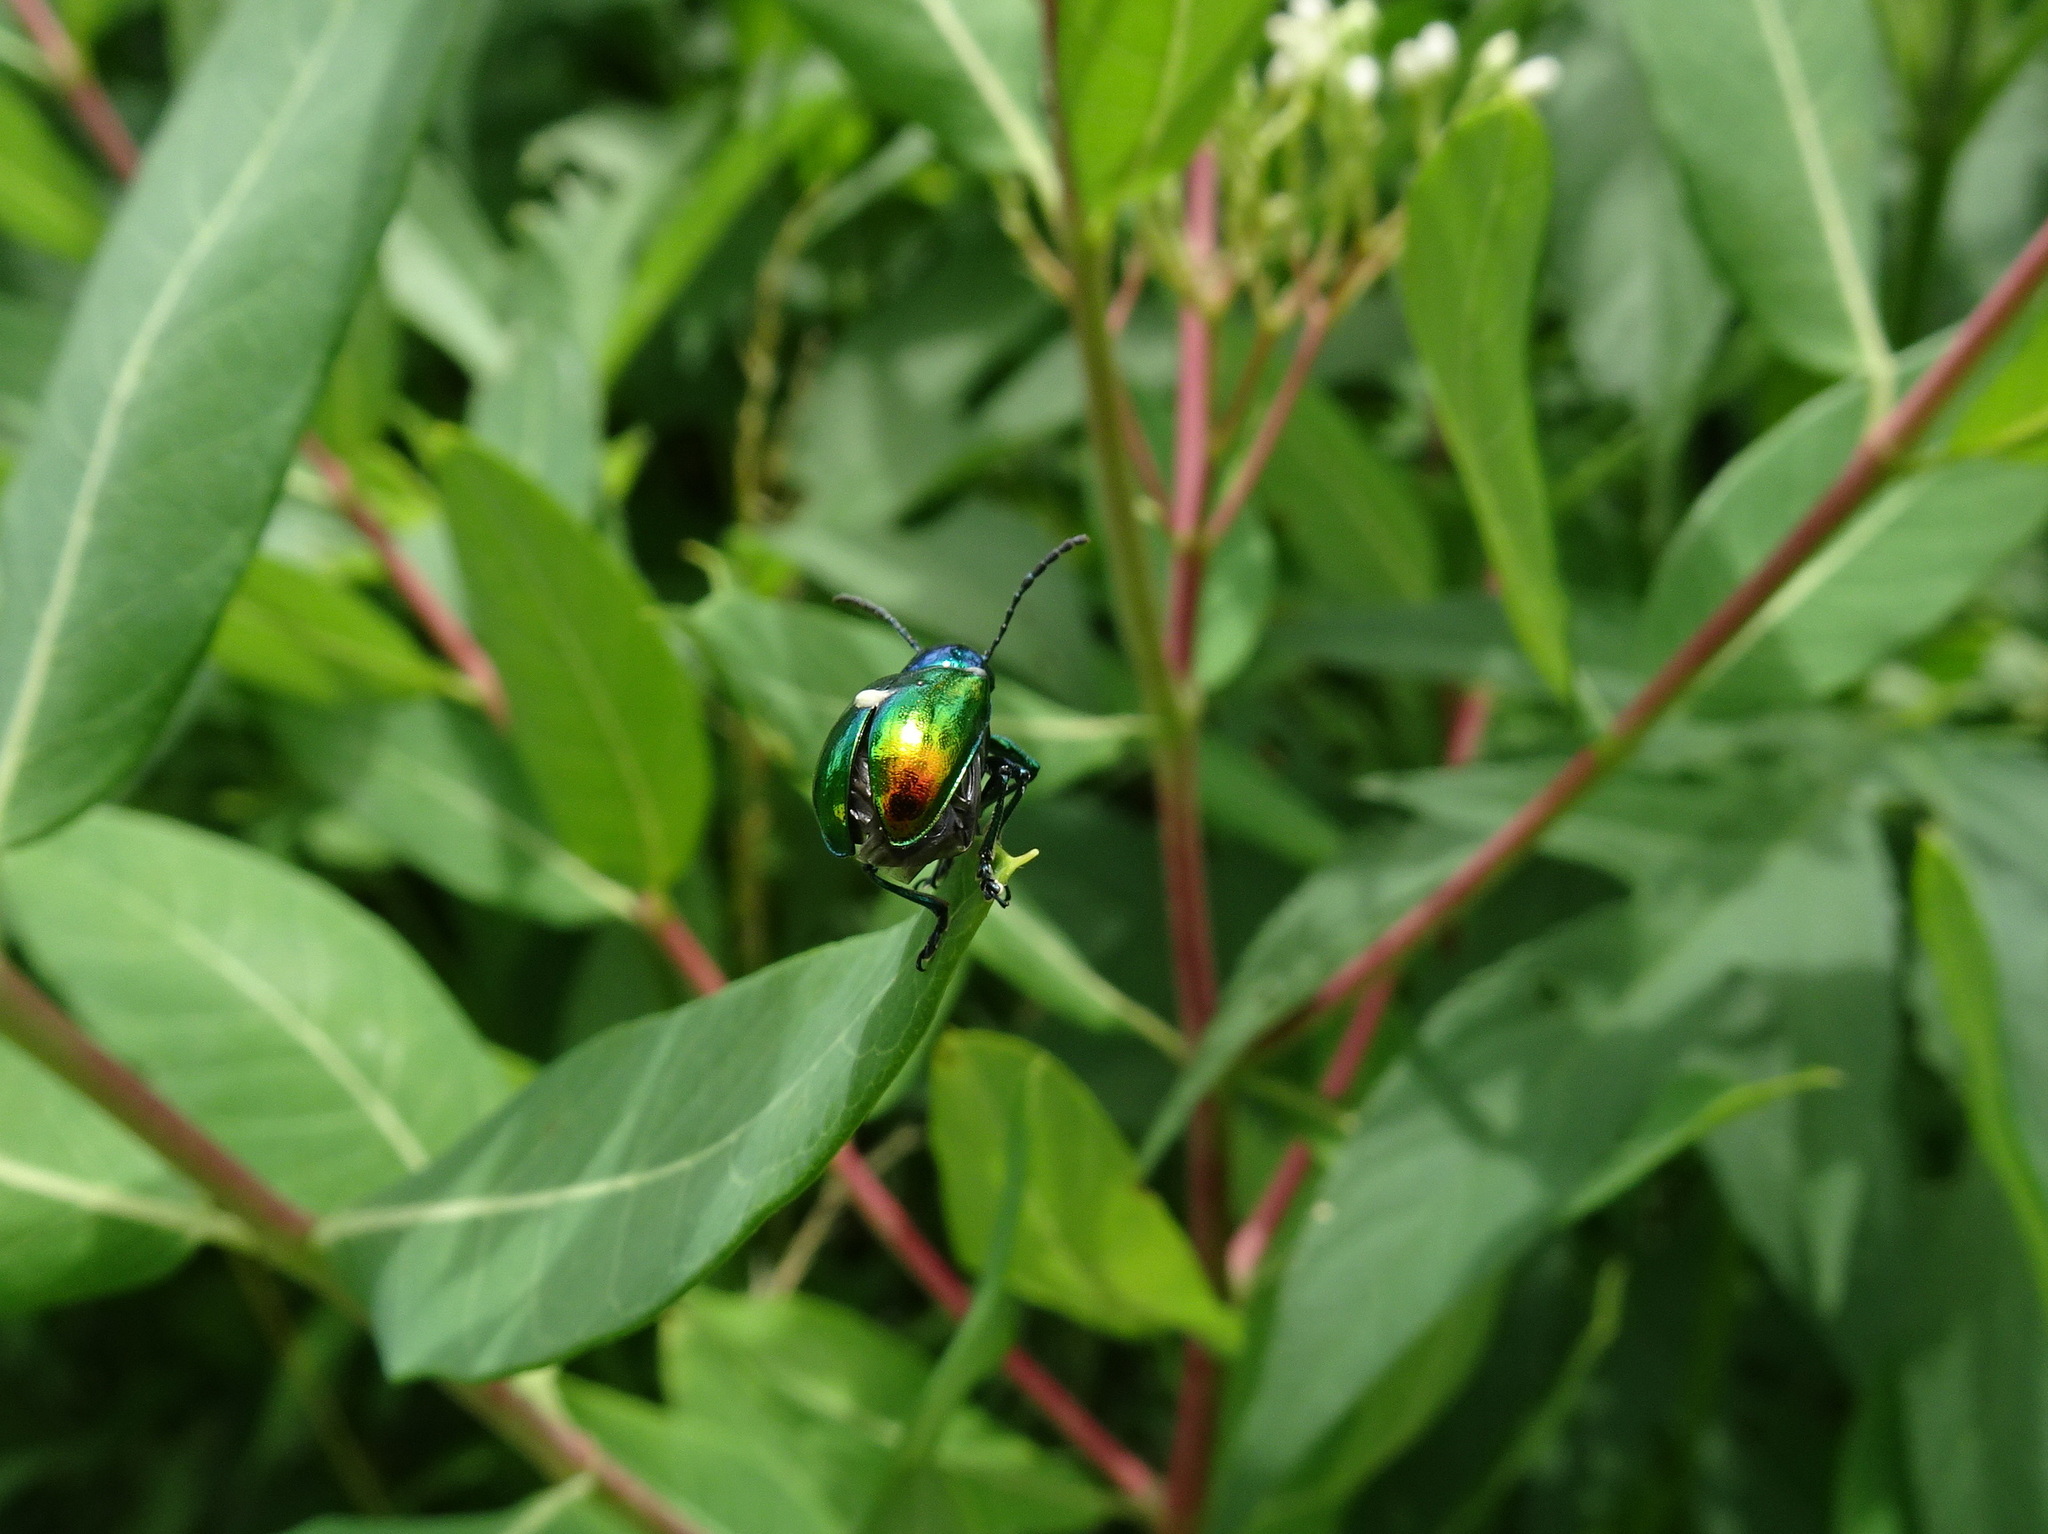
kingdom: Animalia
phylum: Arthropoda
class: Insecta
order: Coleoptera
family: Chrysomelidae
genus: Chrysochus
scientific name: Chrysochus auratus
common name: Dogbane leaf beetle
